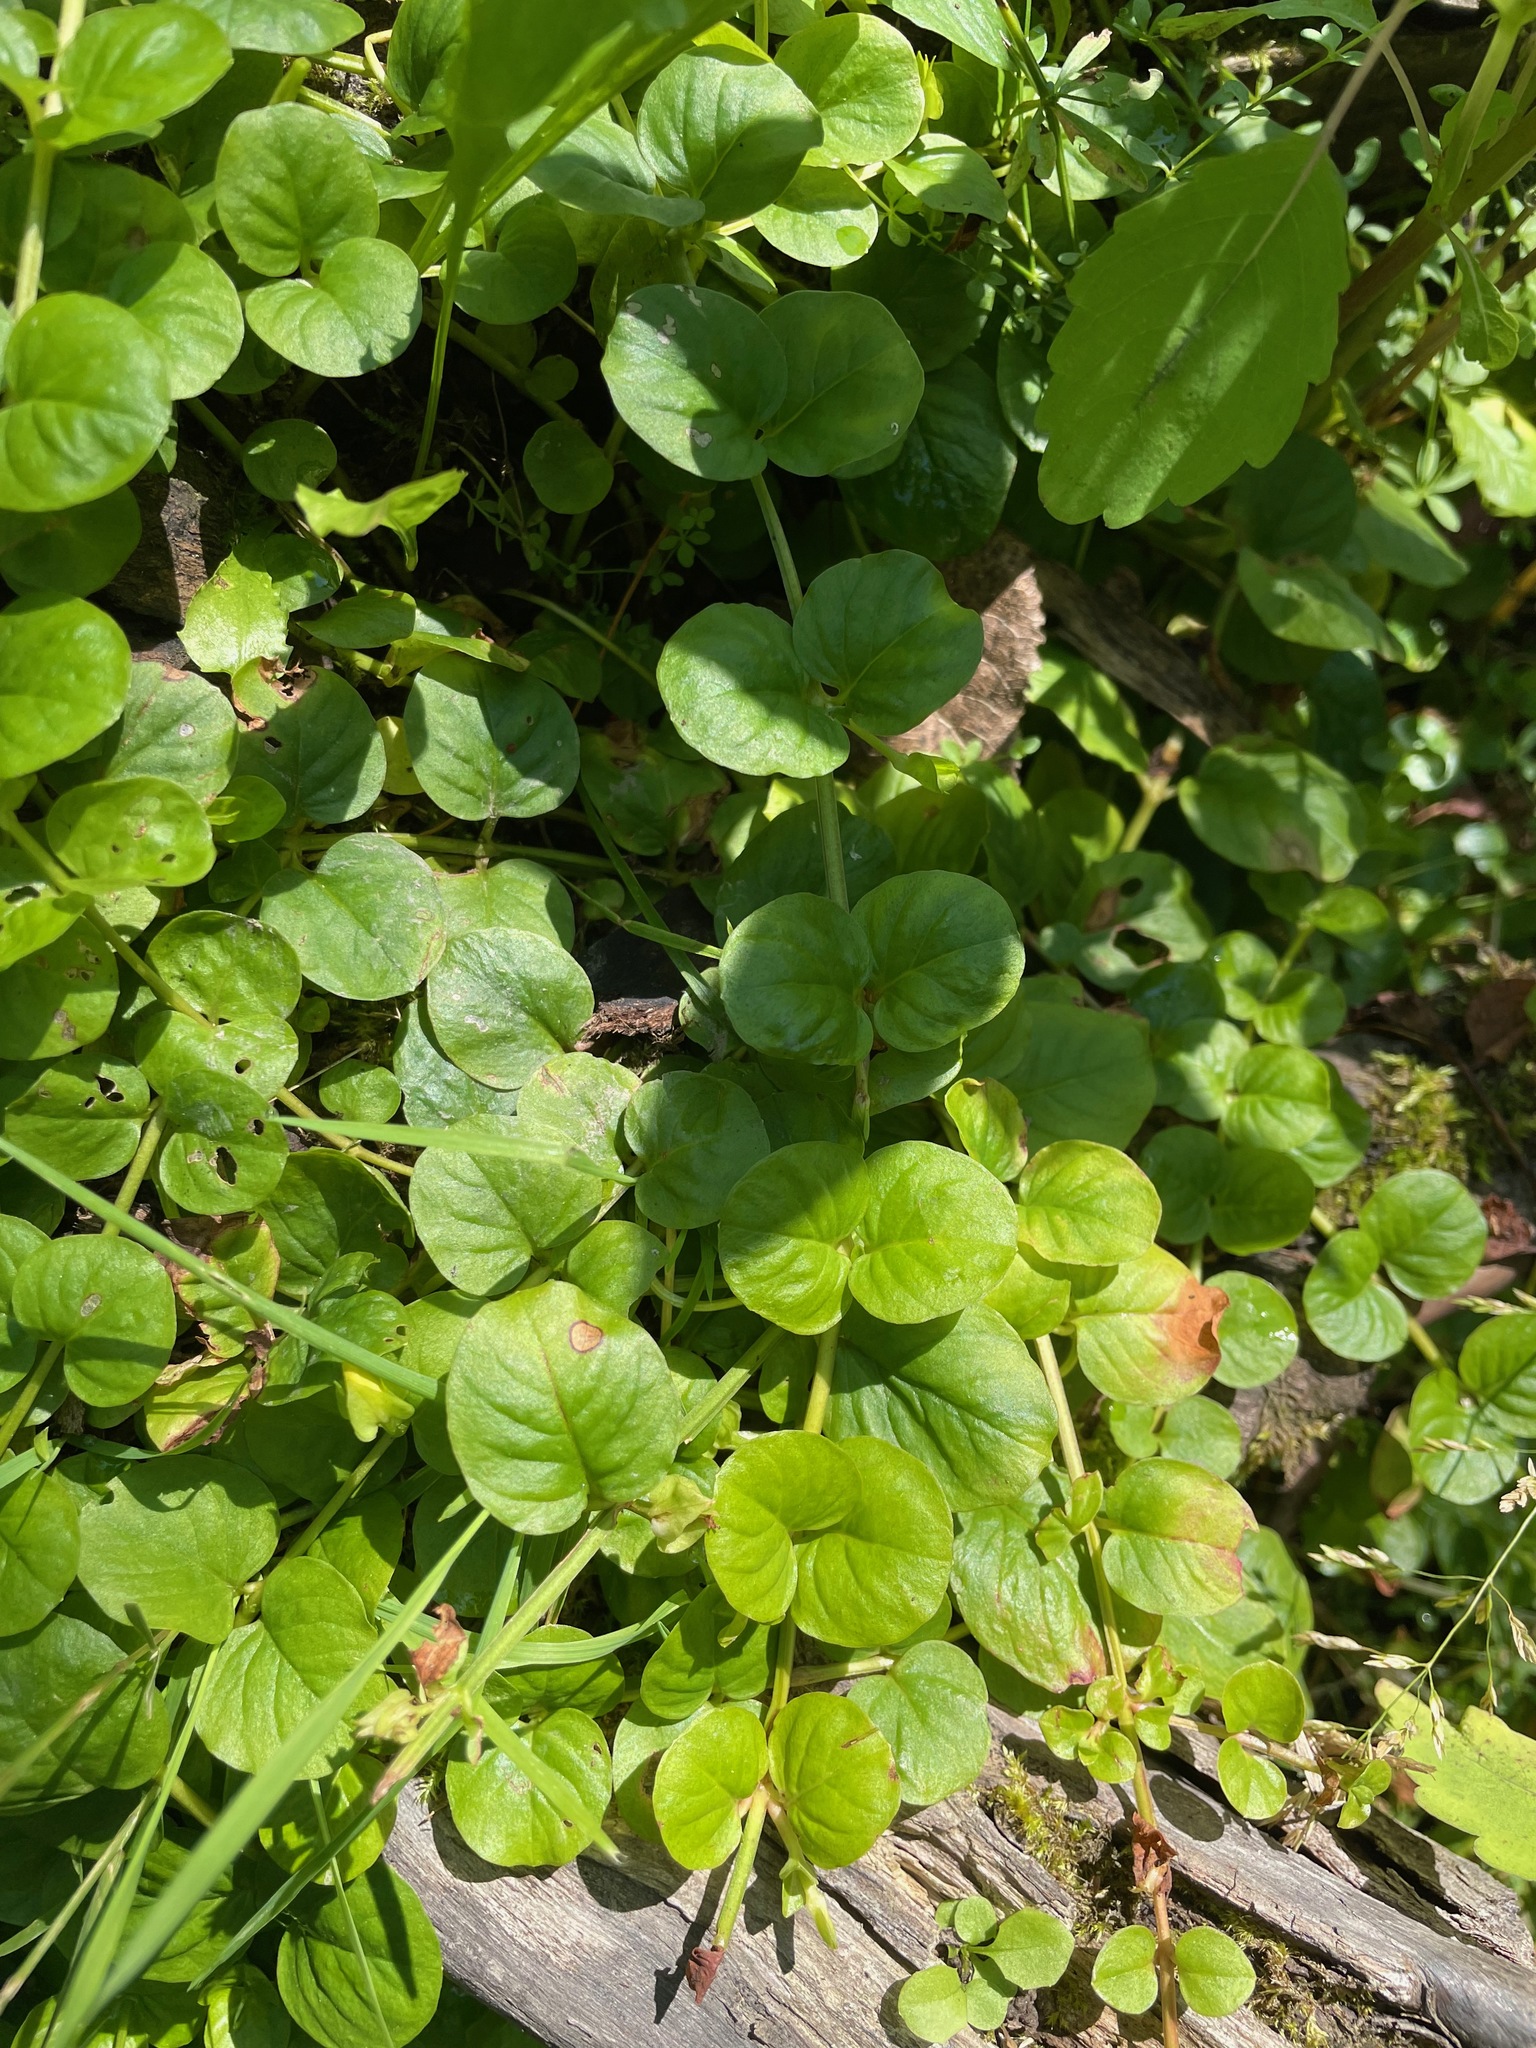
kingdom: Plantae
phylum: Tracheophyta
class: Magnoliopsida
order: Ericales
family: Primulaceae
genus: Lysimachia
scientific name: Lysimachia nummularia
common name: Moneywort
